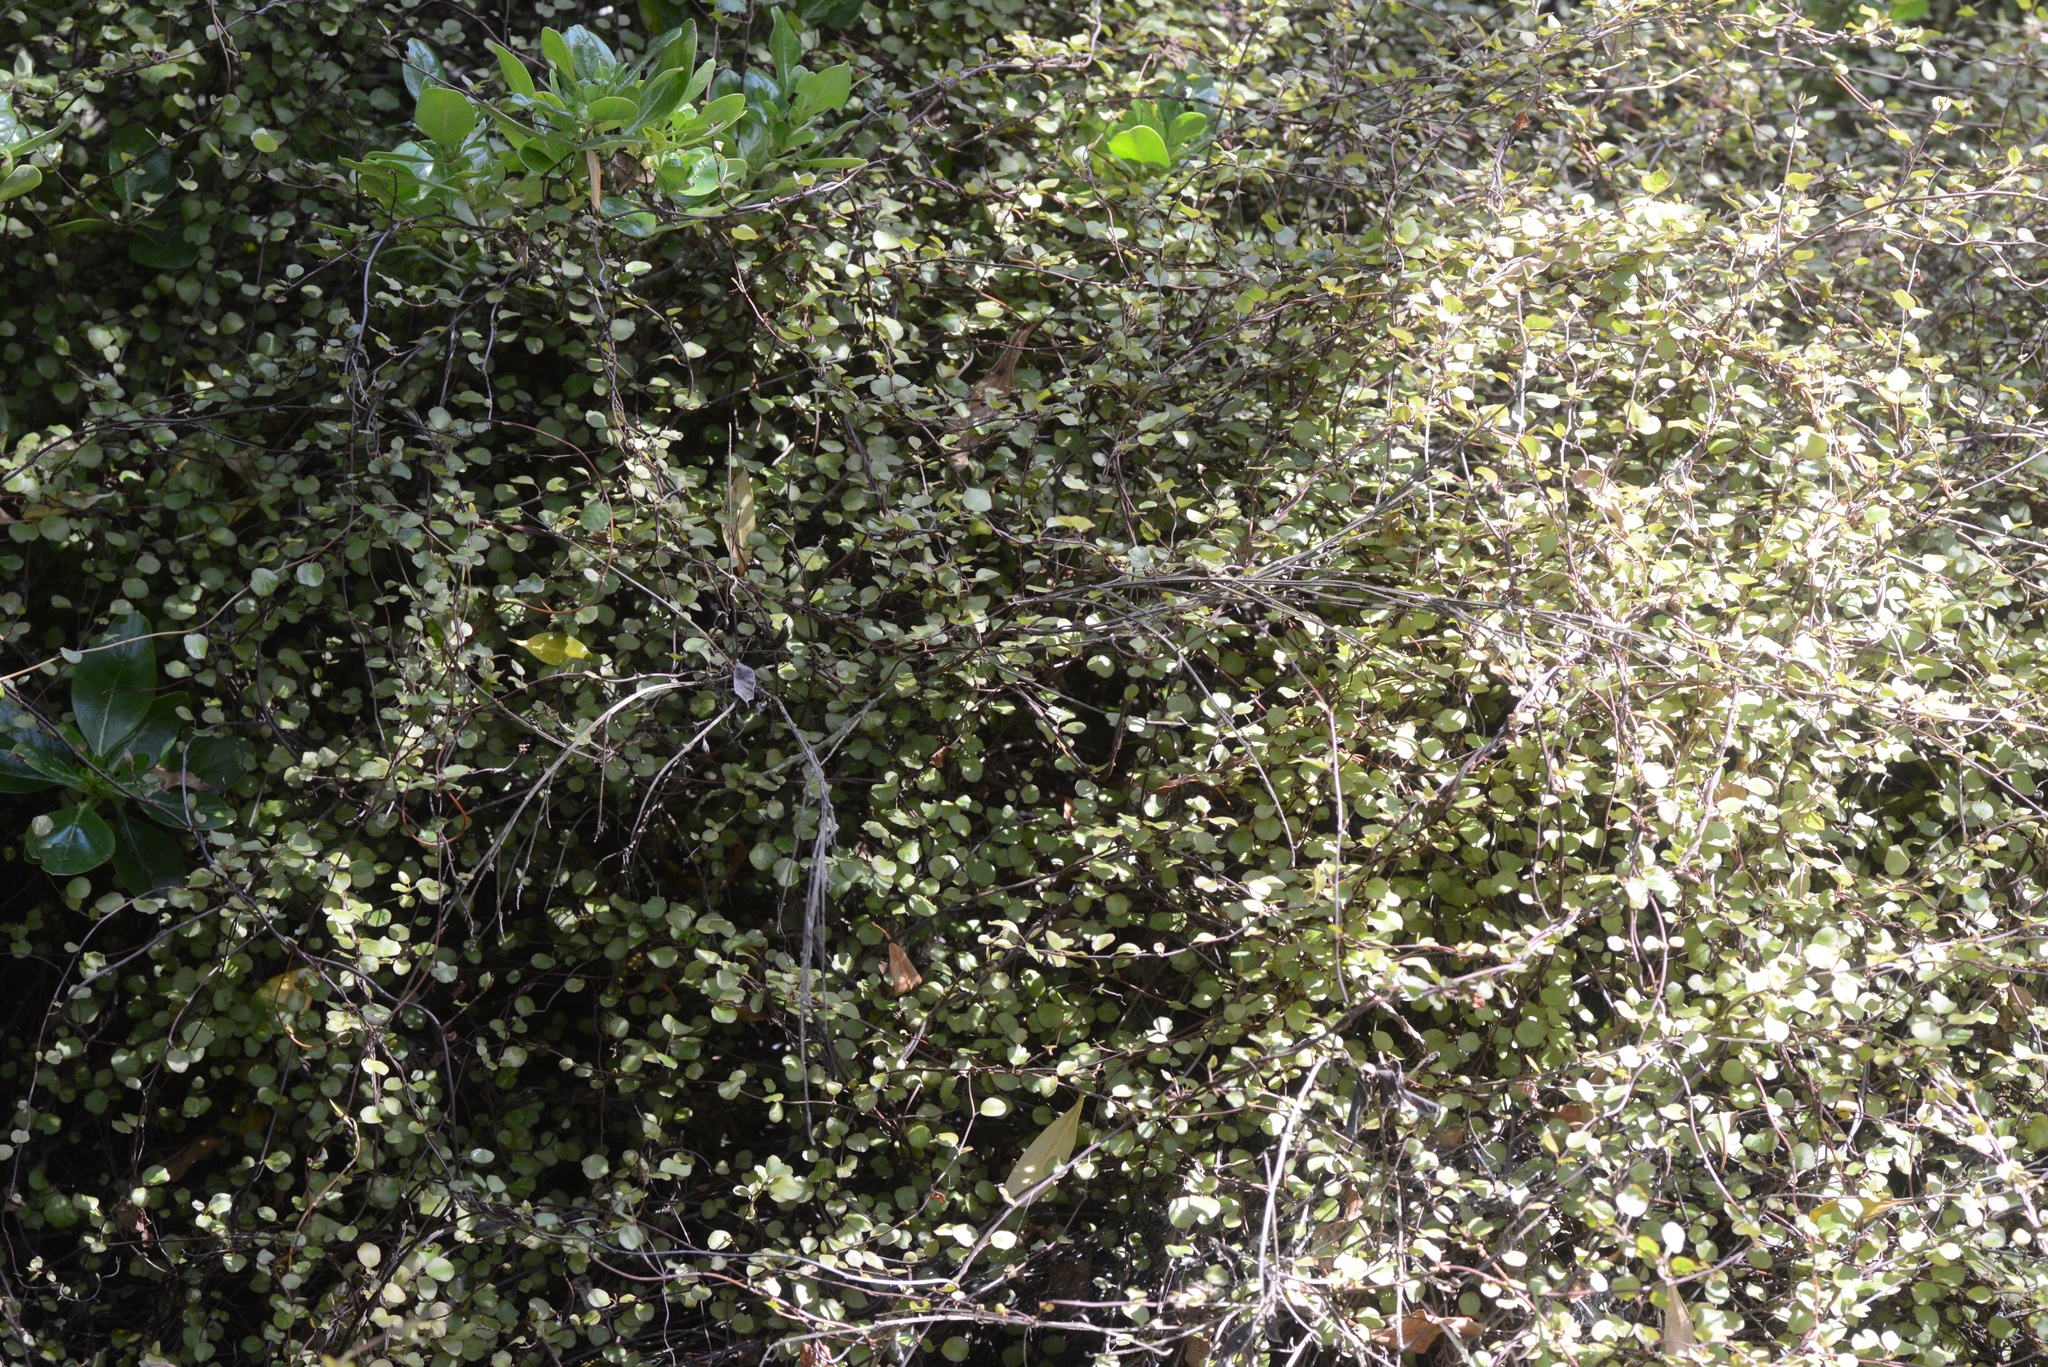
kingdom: Plantae
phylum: Tracheophyta
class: Magnoliopsida
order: Caryophyllales
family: Polygonaceae
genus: Muehlenbeckia
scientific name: Muehlenbeckia complexa
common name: Wireplant
